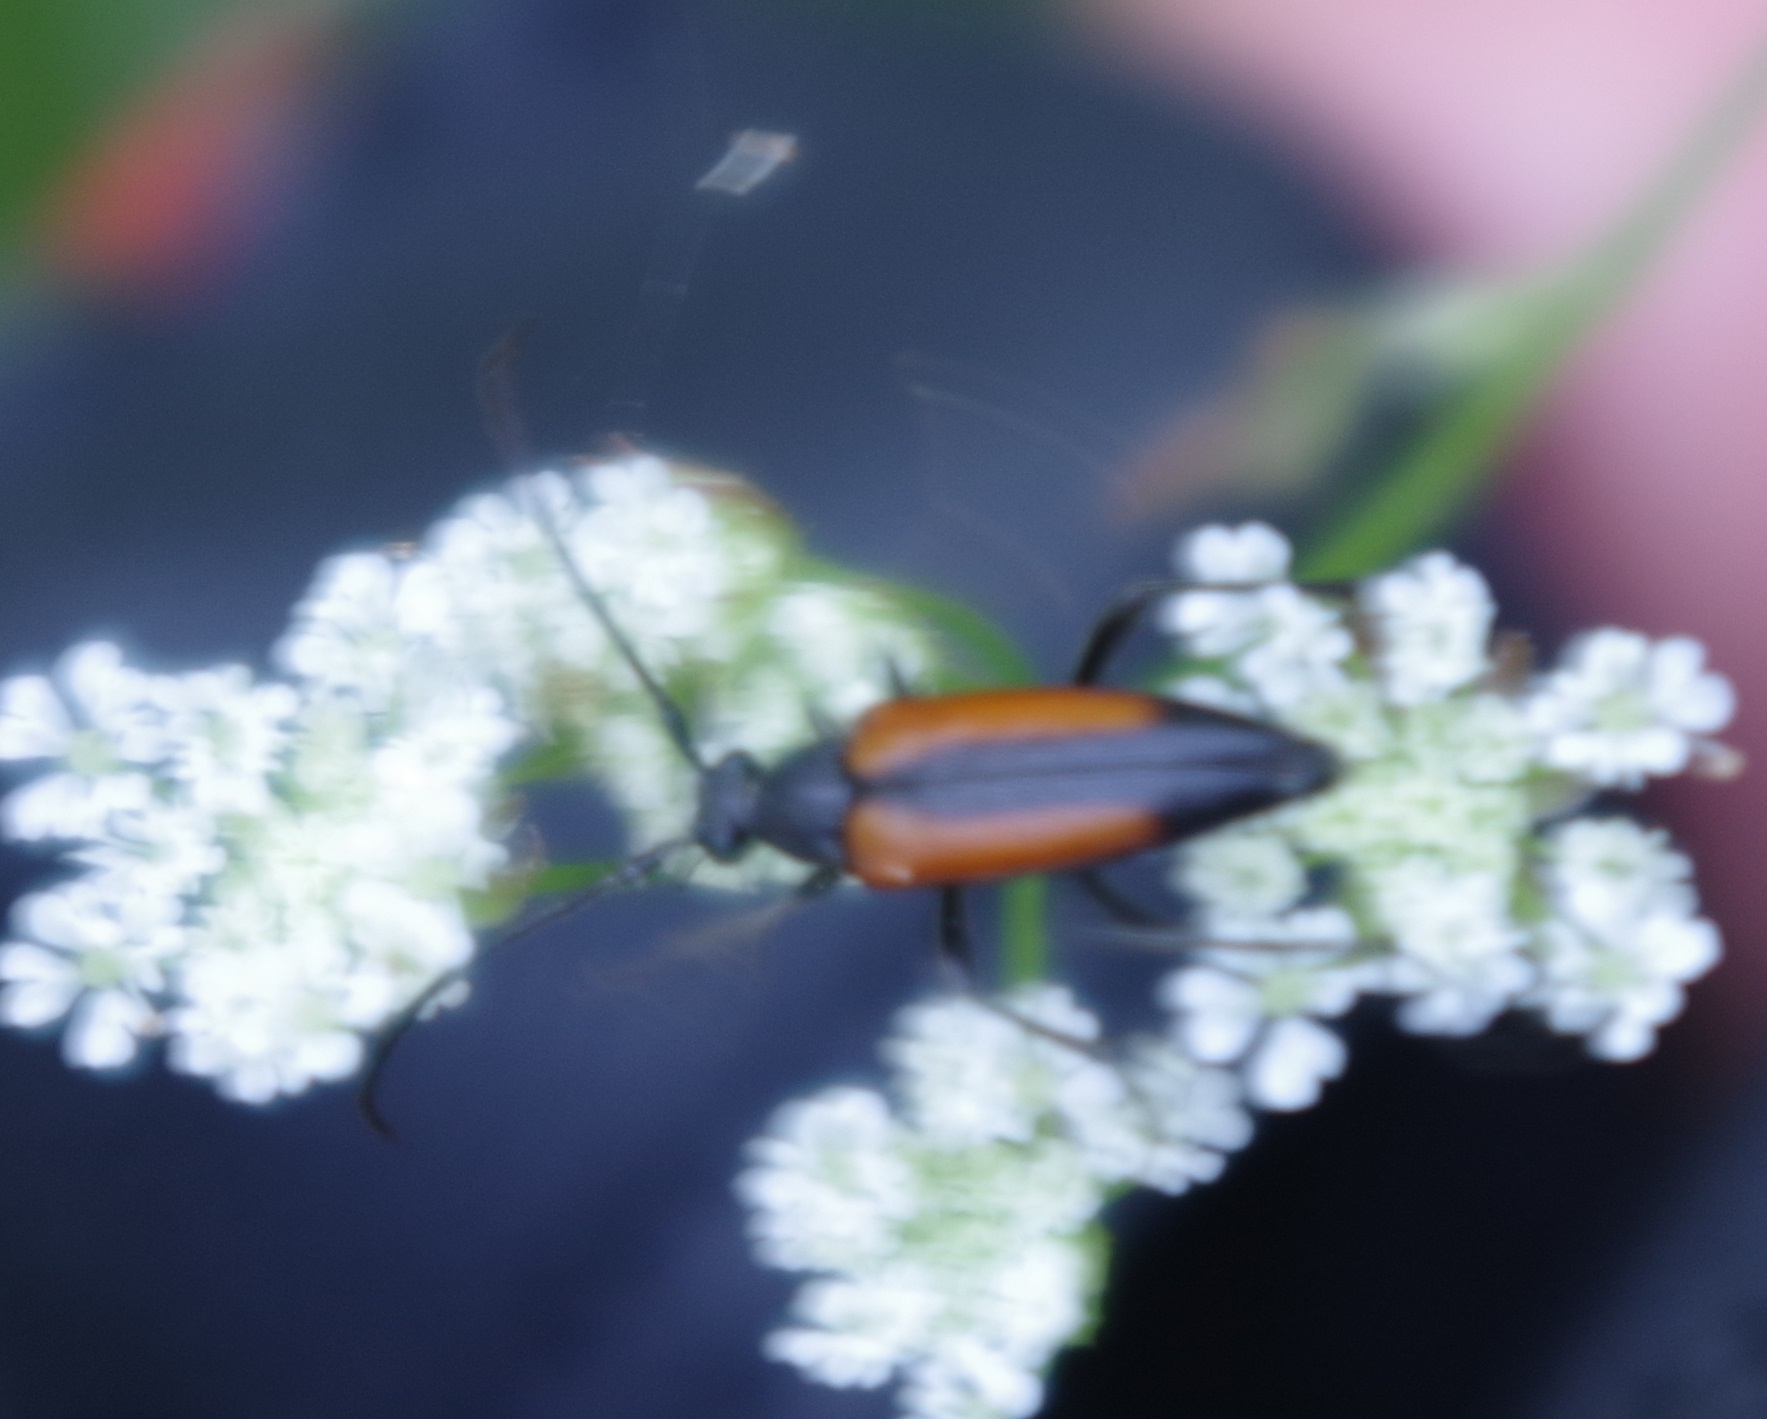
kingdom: Animalia
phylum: Arthropoda
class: Insecta
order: Coleoptera
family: Cerambycidae
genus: Stenurella
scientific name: Stenurella melanura
